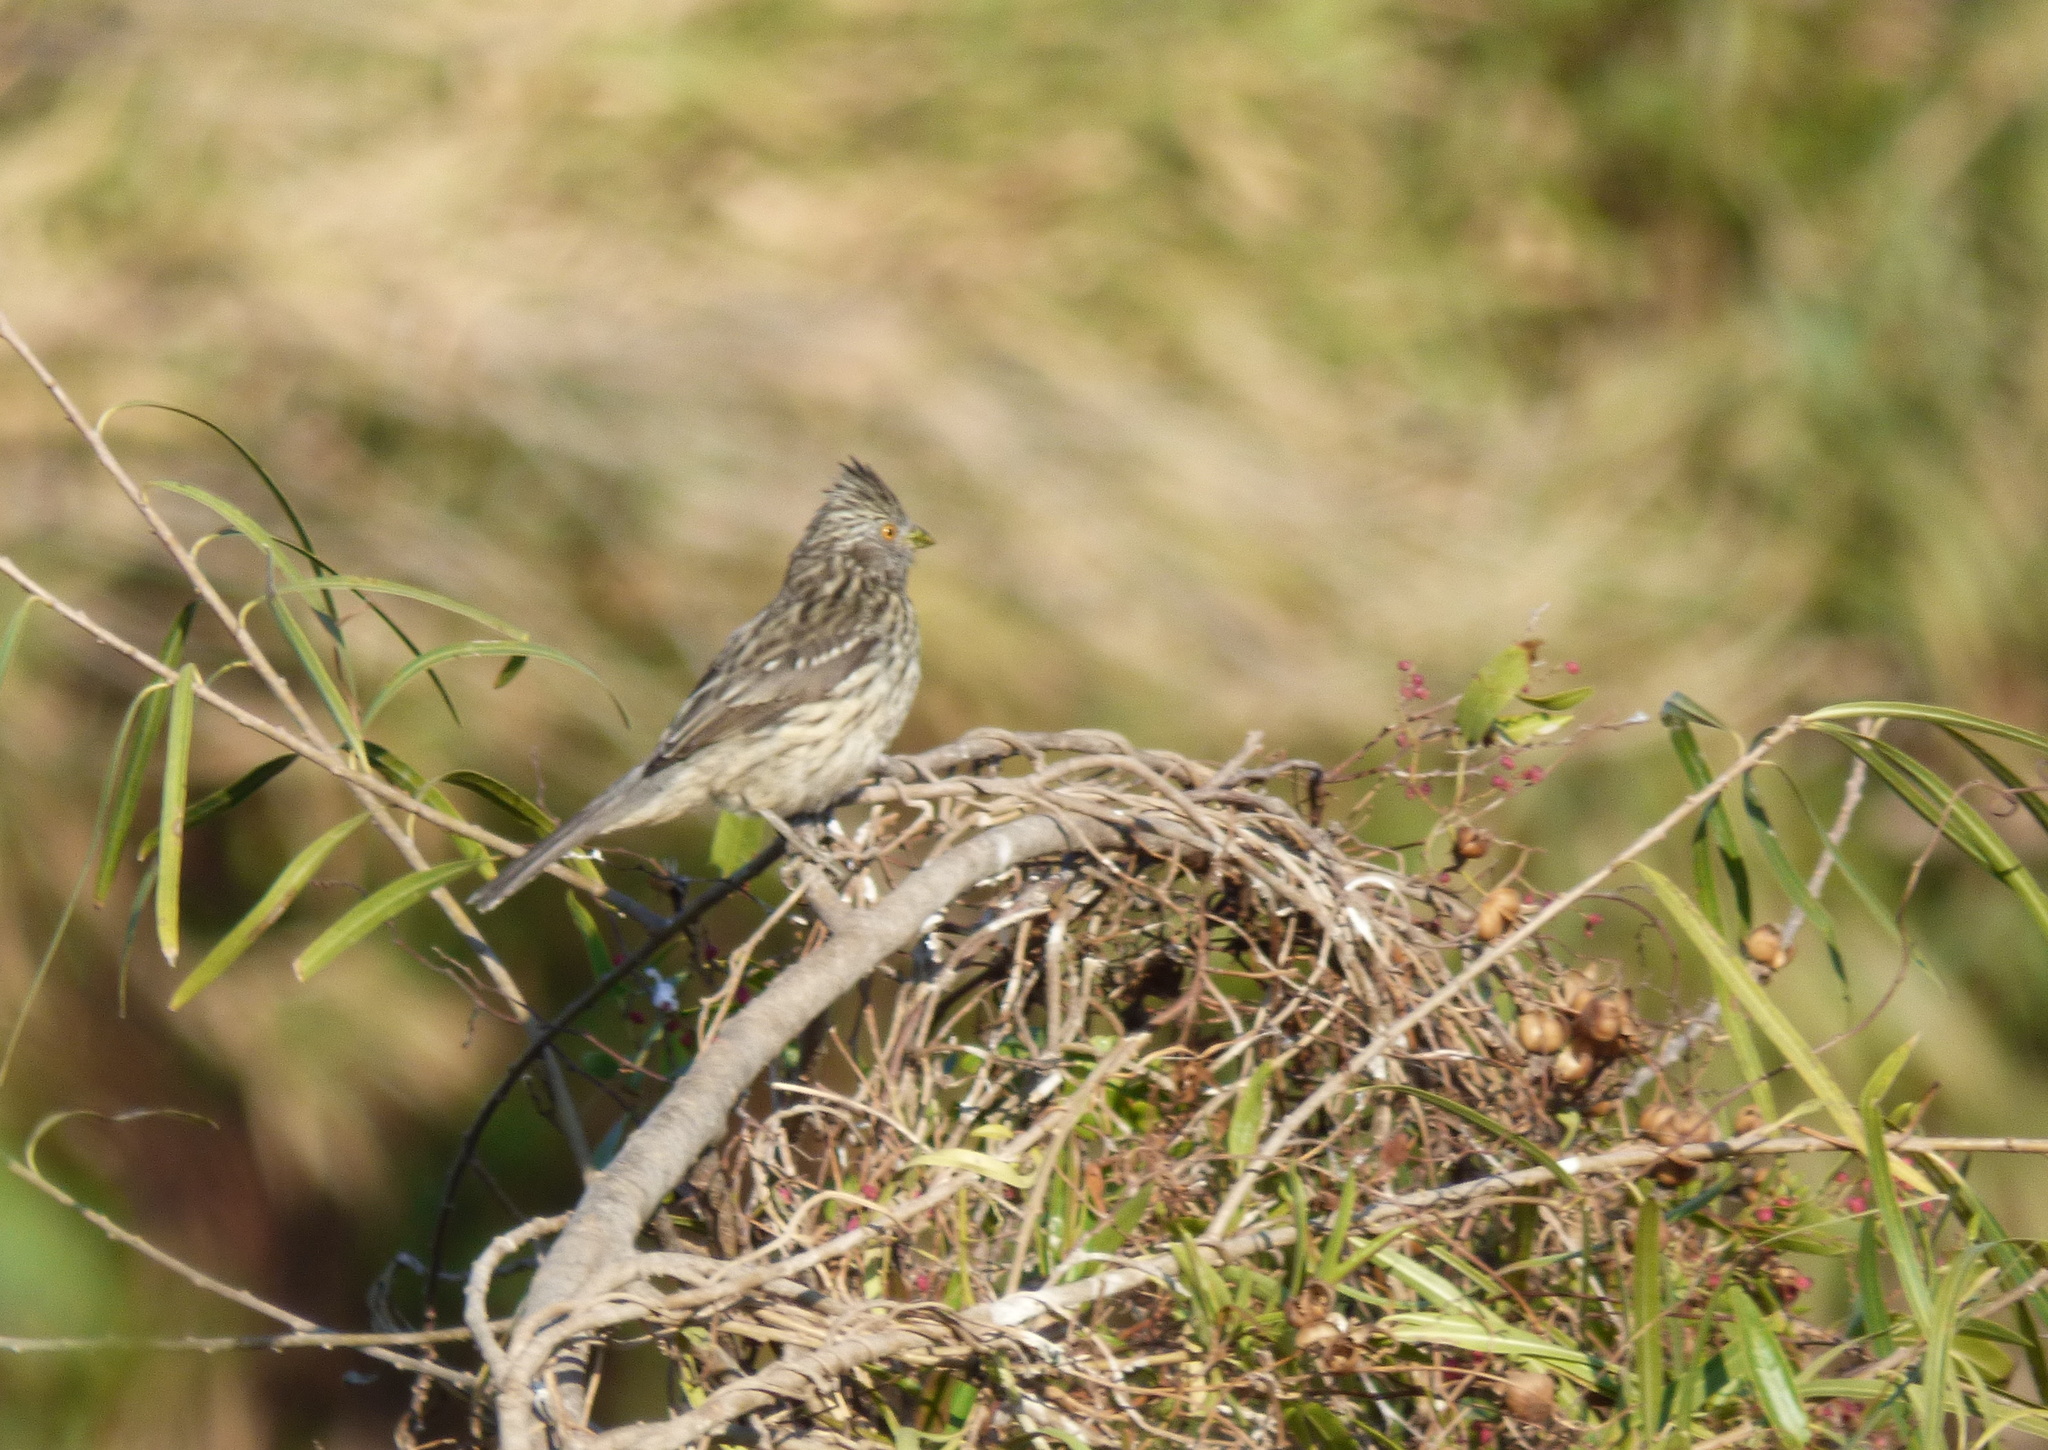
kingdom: Animalia
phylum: Chordata
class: Aves
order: Passeriformes
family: Cotingidae
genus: Phytotoma
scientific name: Phytotoma rutila
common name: White-tipped plantcutter
